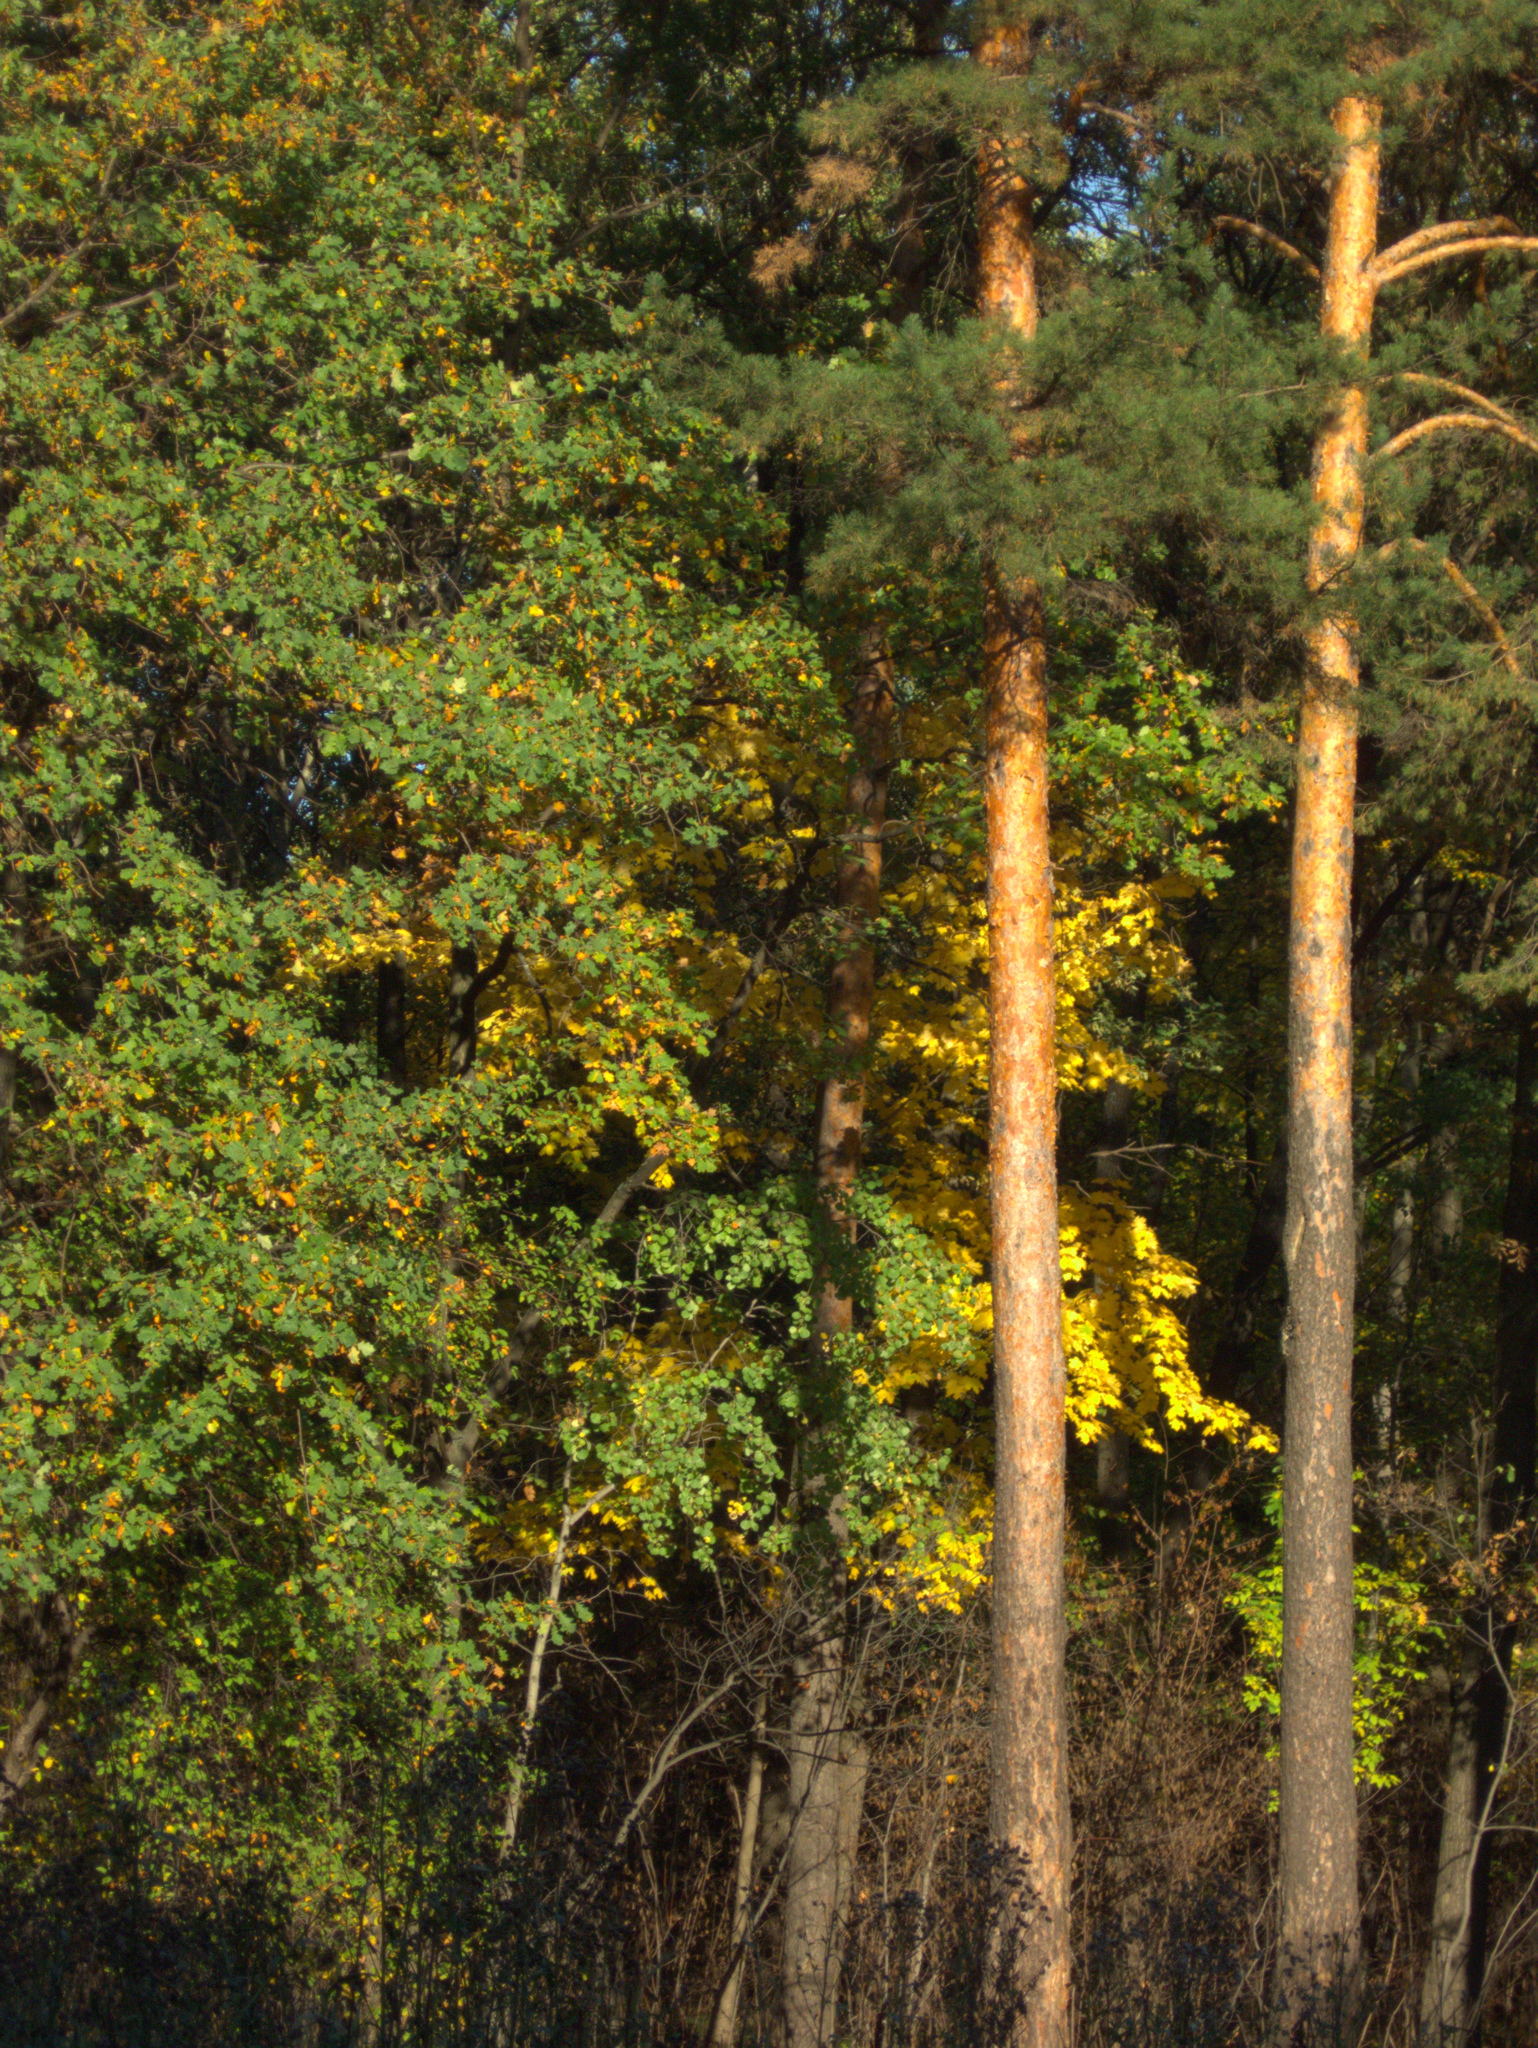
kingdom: Plantae
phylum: Tracheophyta
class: Pinopsida
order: Pinales
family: Pinaceae
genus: Pinus
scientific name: Pinus sylvestris
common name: Scots pine
